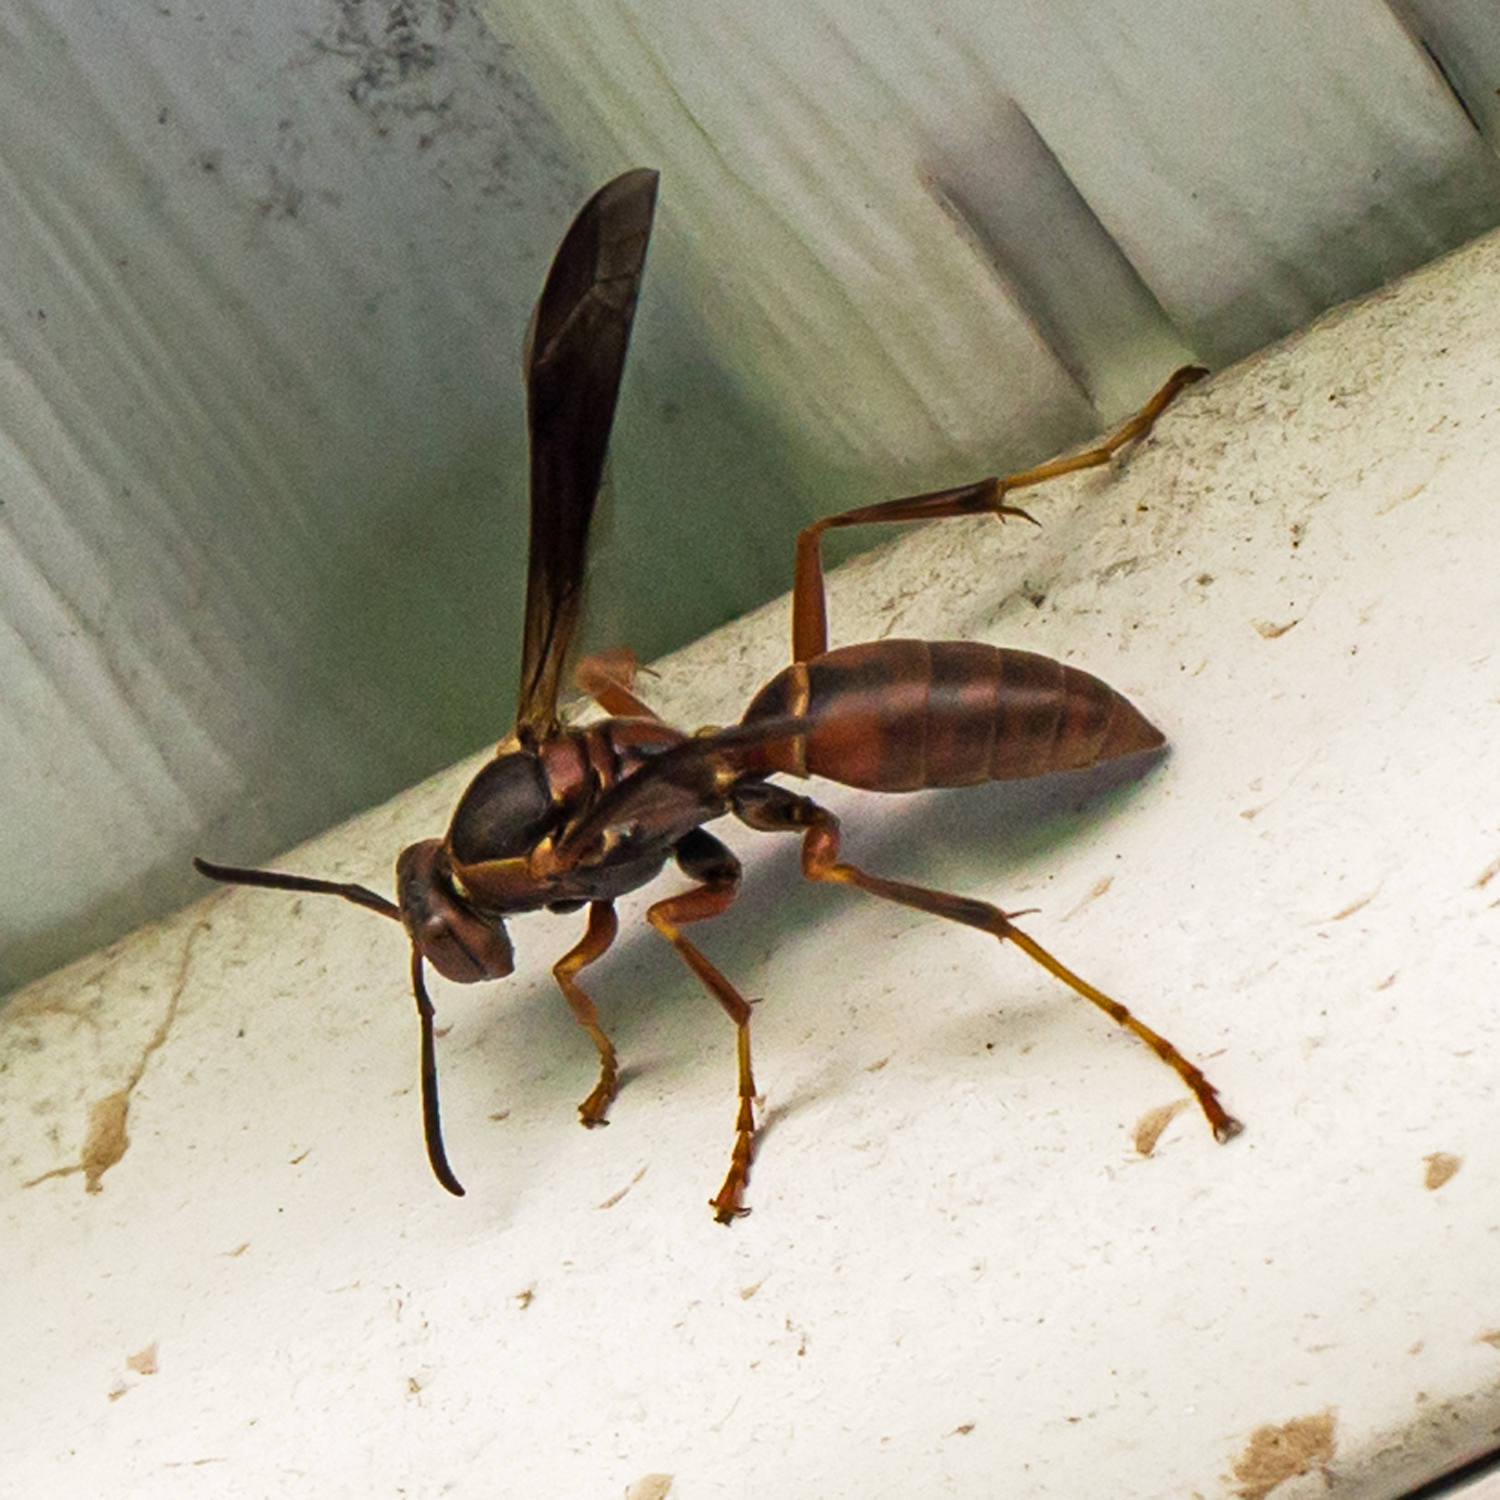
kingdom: Animalia
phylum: Arthropoda
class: Insecta
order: Hymenoptera
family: Eumenidae
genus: Polistes
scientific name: Polistes fuscatus
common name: Dark paper wasp
